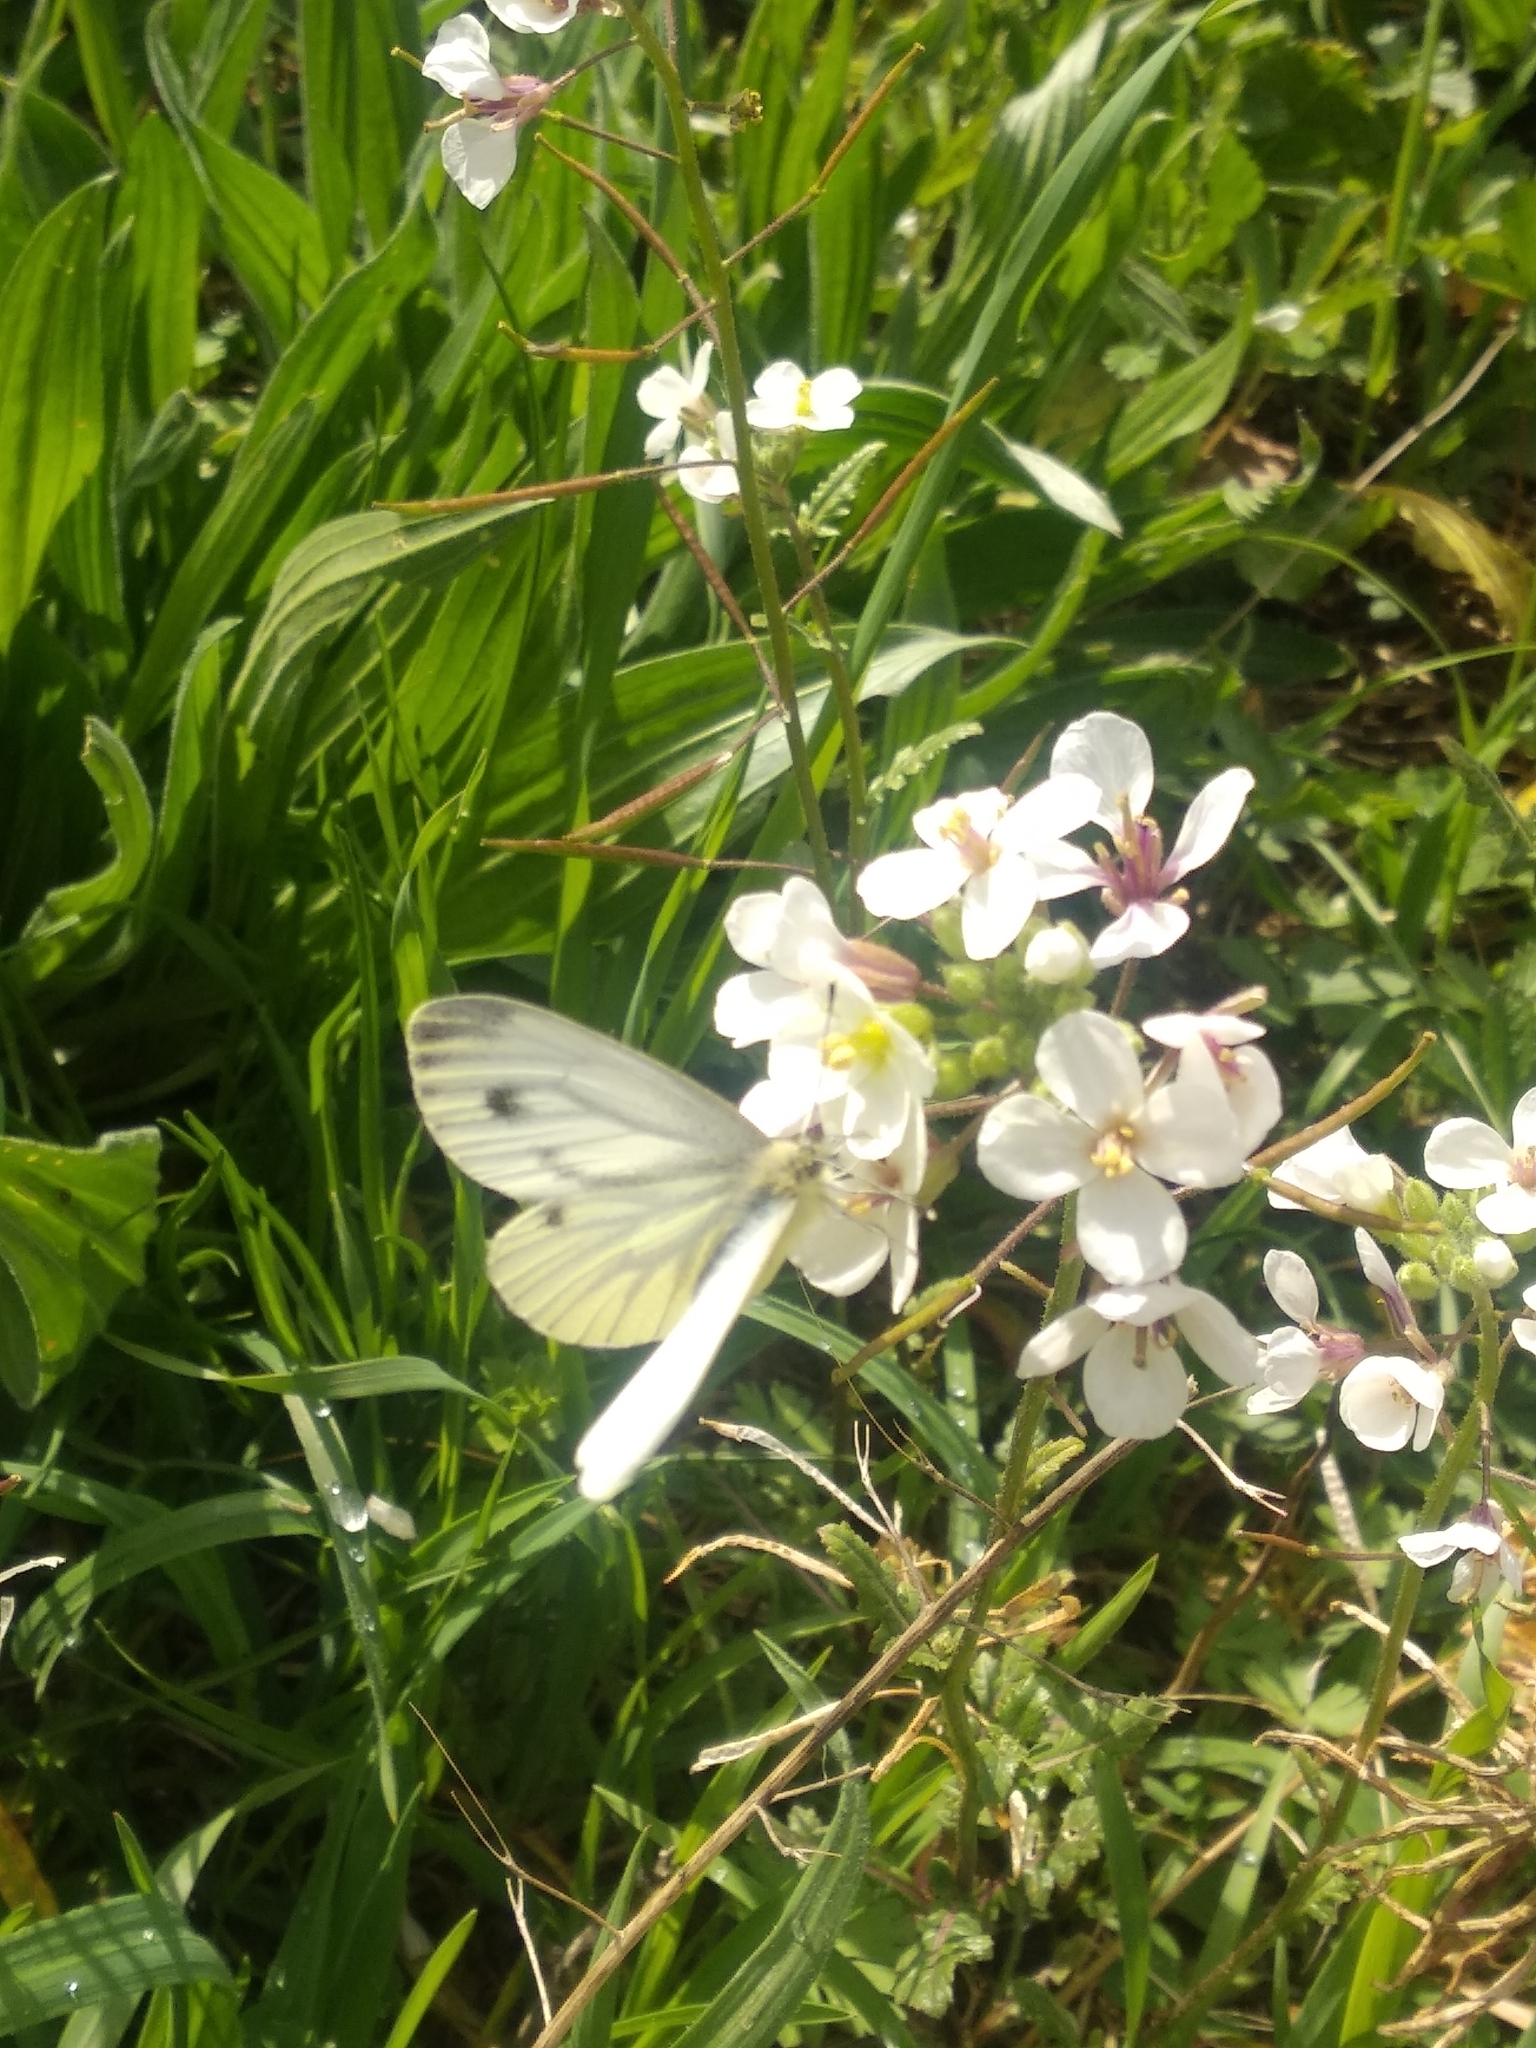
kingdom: Animalia
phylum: Arthropoda
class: Insecta
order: Lepidoptera
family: Pieridae
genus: Pieris
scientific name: Pieris napi
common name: Green-veined white
